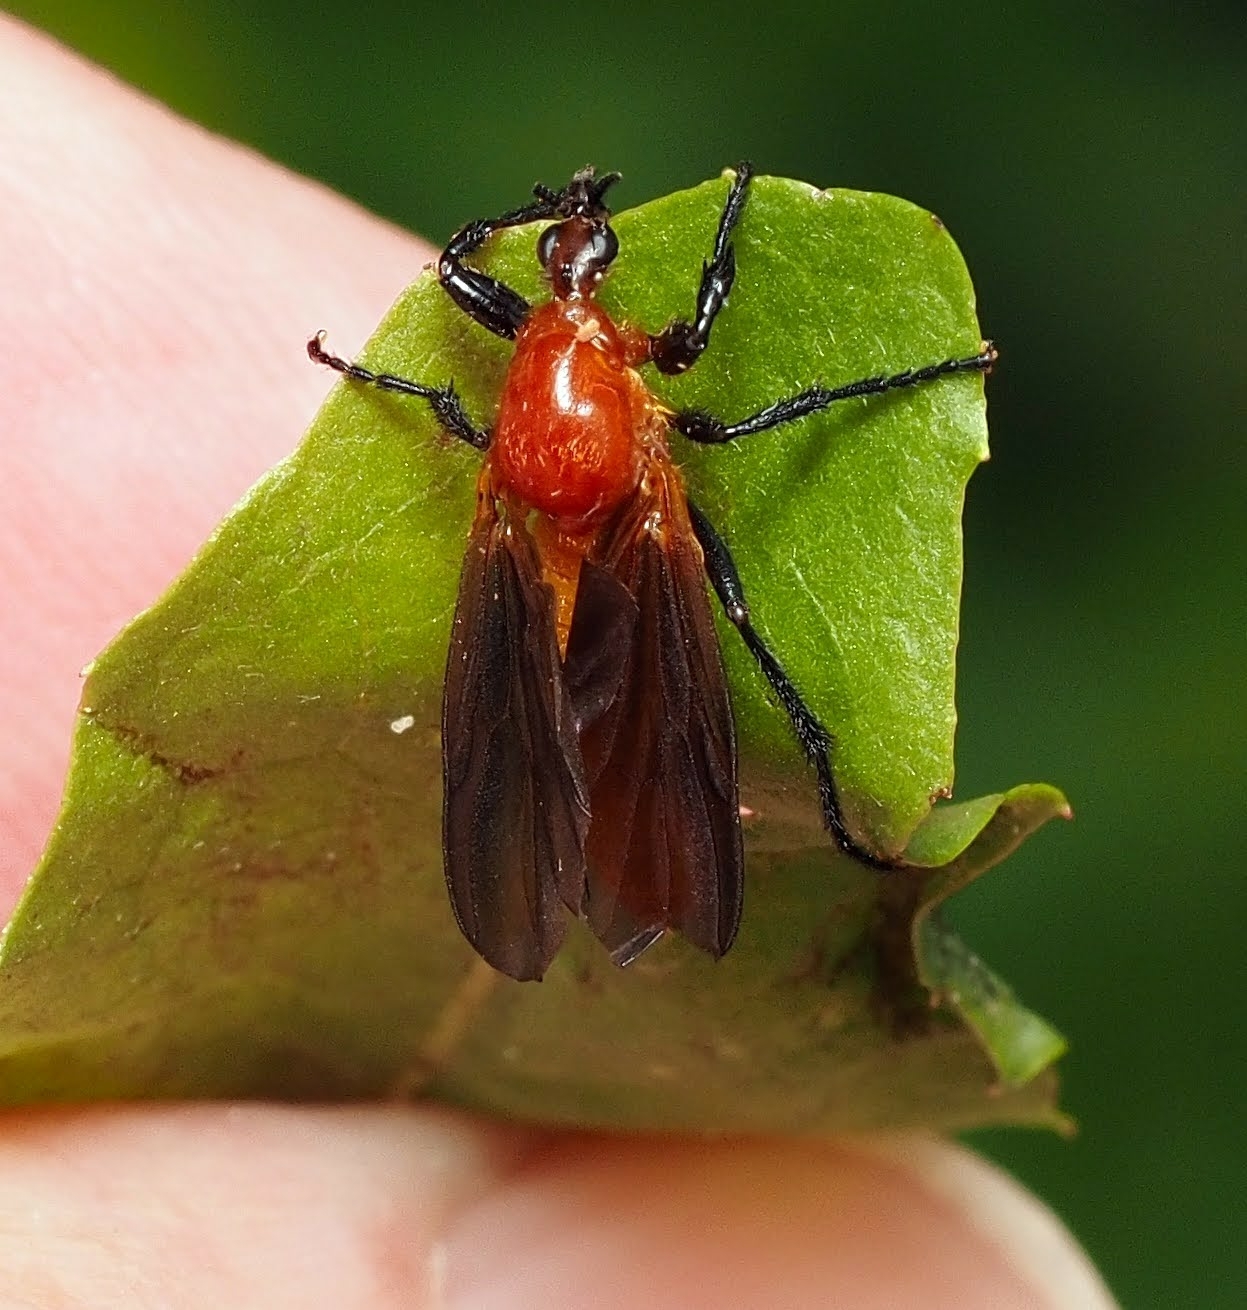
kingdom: Animalia
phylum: Arthropoda
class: Insecta
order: Diptera
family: Bibionidae
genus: Bibio
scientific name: Bibio imitator
